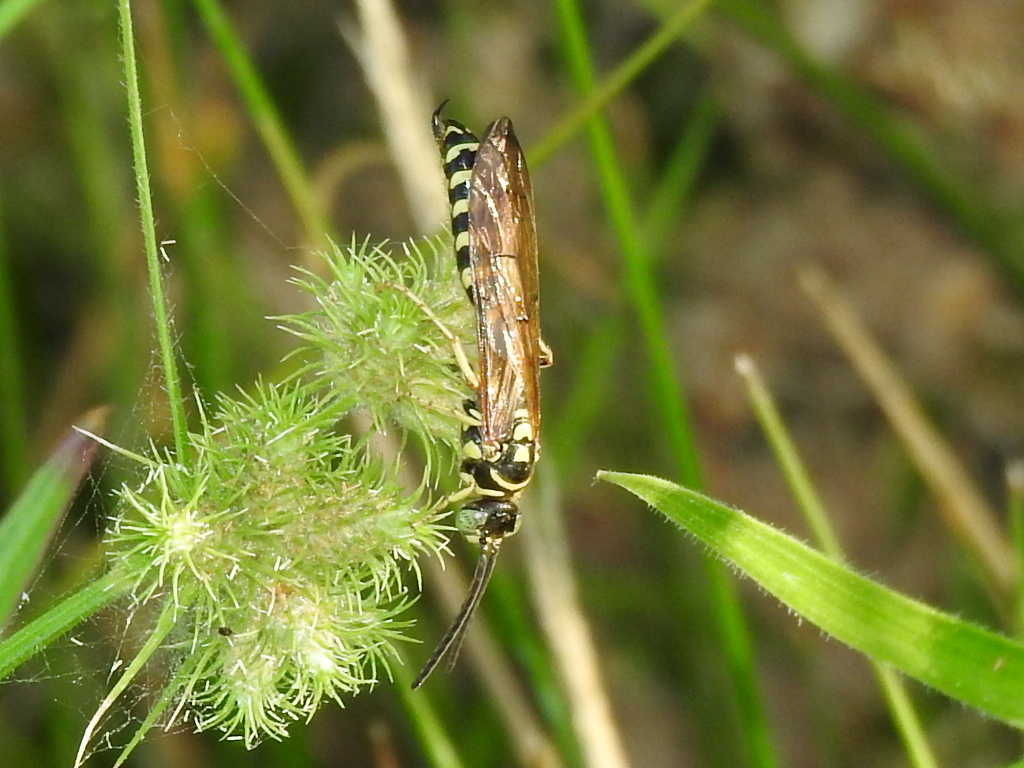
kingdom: Animalia
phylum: Arthropoda
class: Insecta
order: Hymenoptera
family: Tiphiidae
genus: Myzinum
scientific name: Myzinum quinquecinctum
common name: Five-banded thynnid wasp
